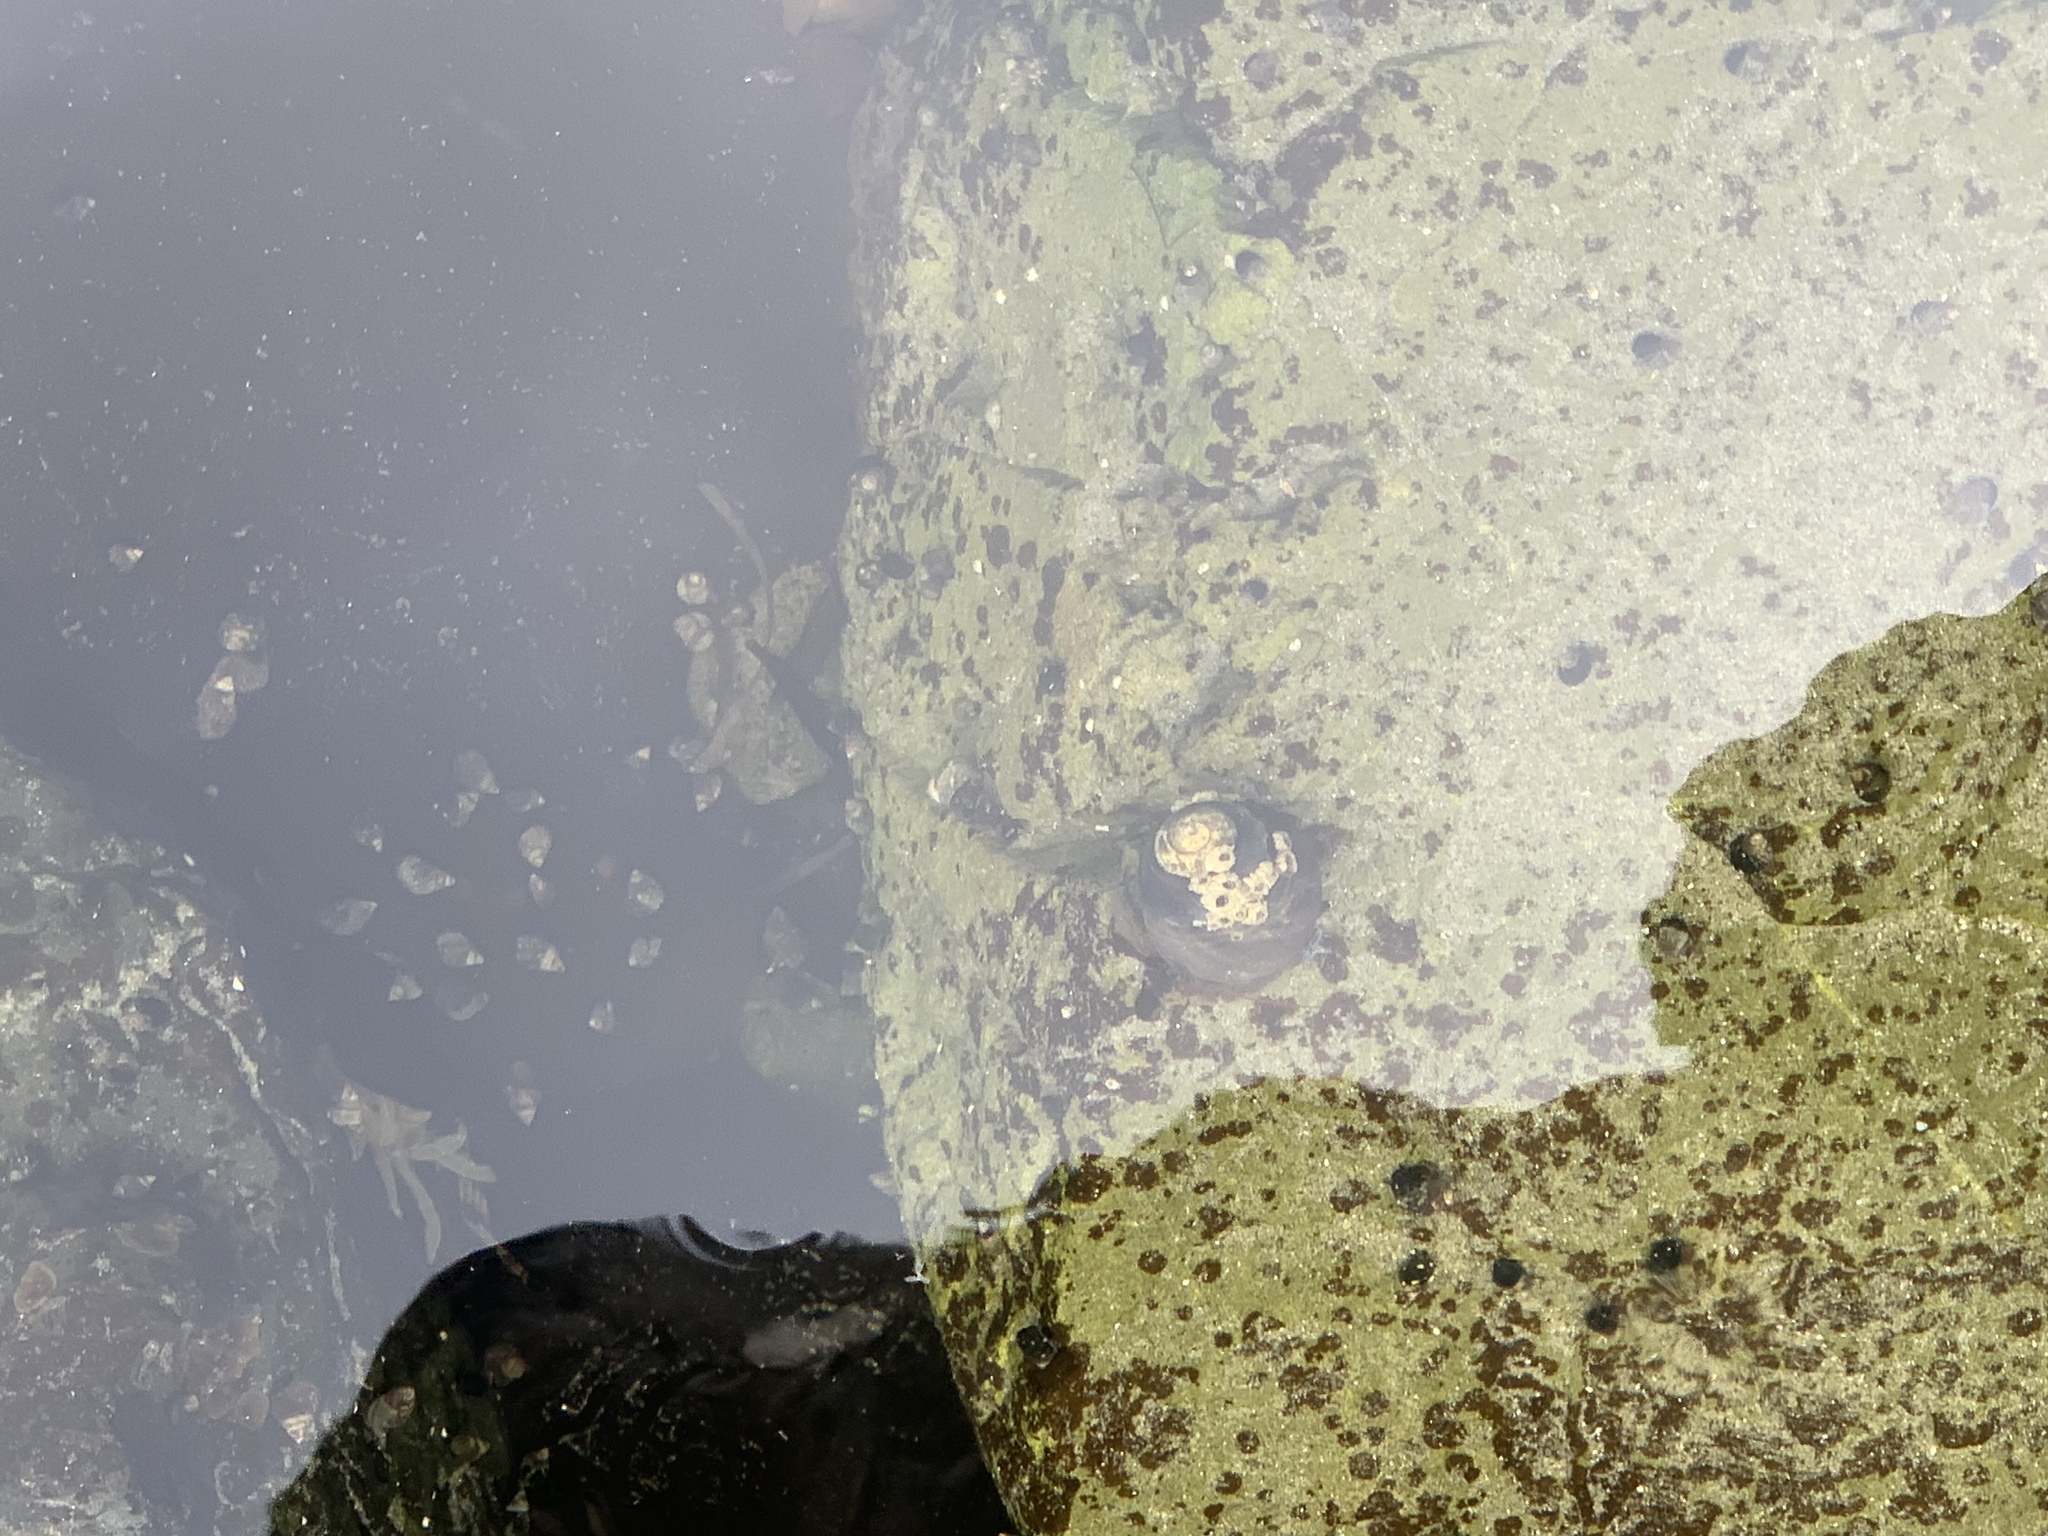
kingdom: Animalia
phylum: Mollusca
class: Gastropoda
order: Trochida
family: Tegulidae
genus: Tegula
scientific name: Tegula funebralis
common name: Black tegula
